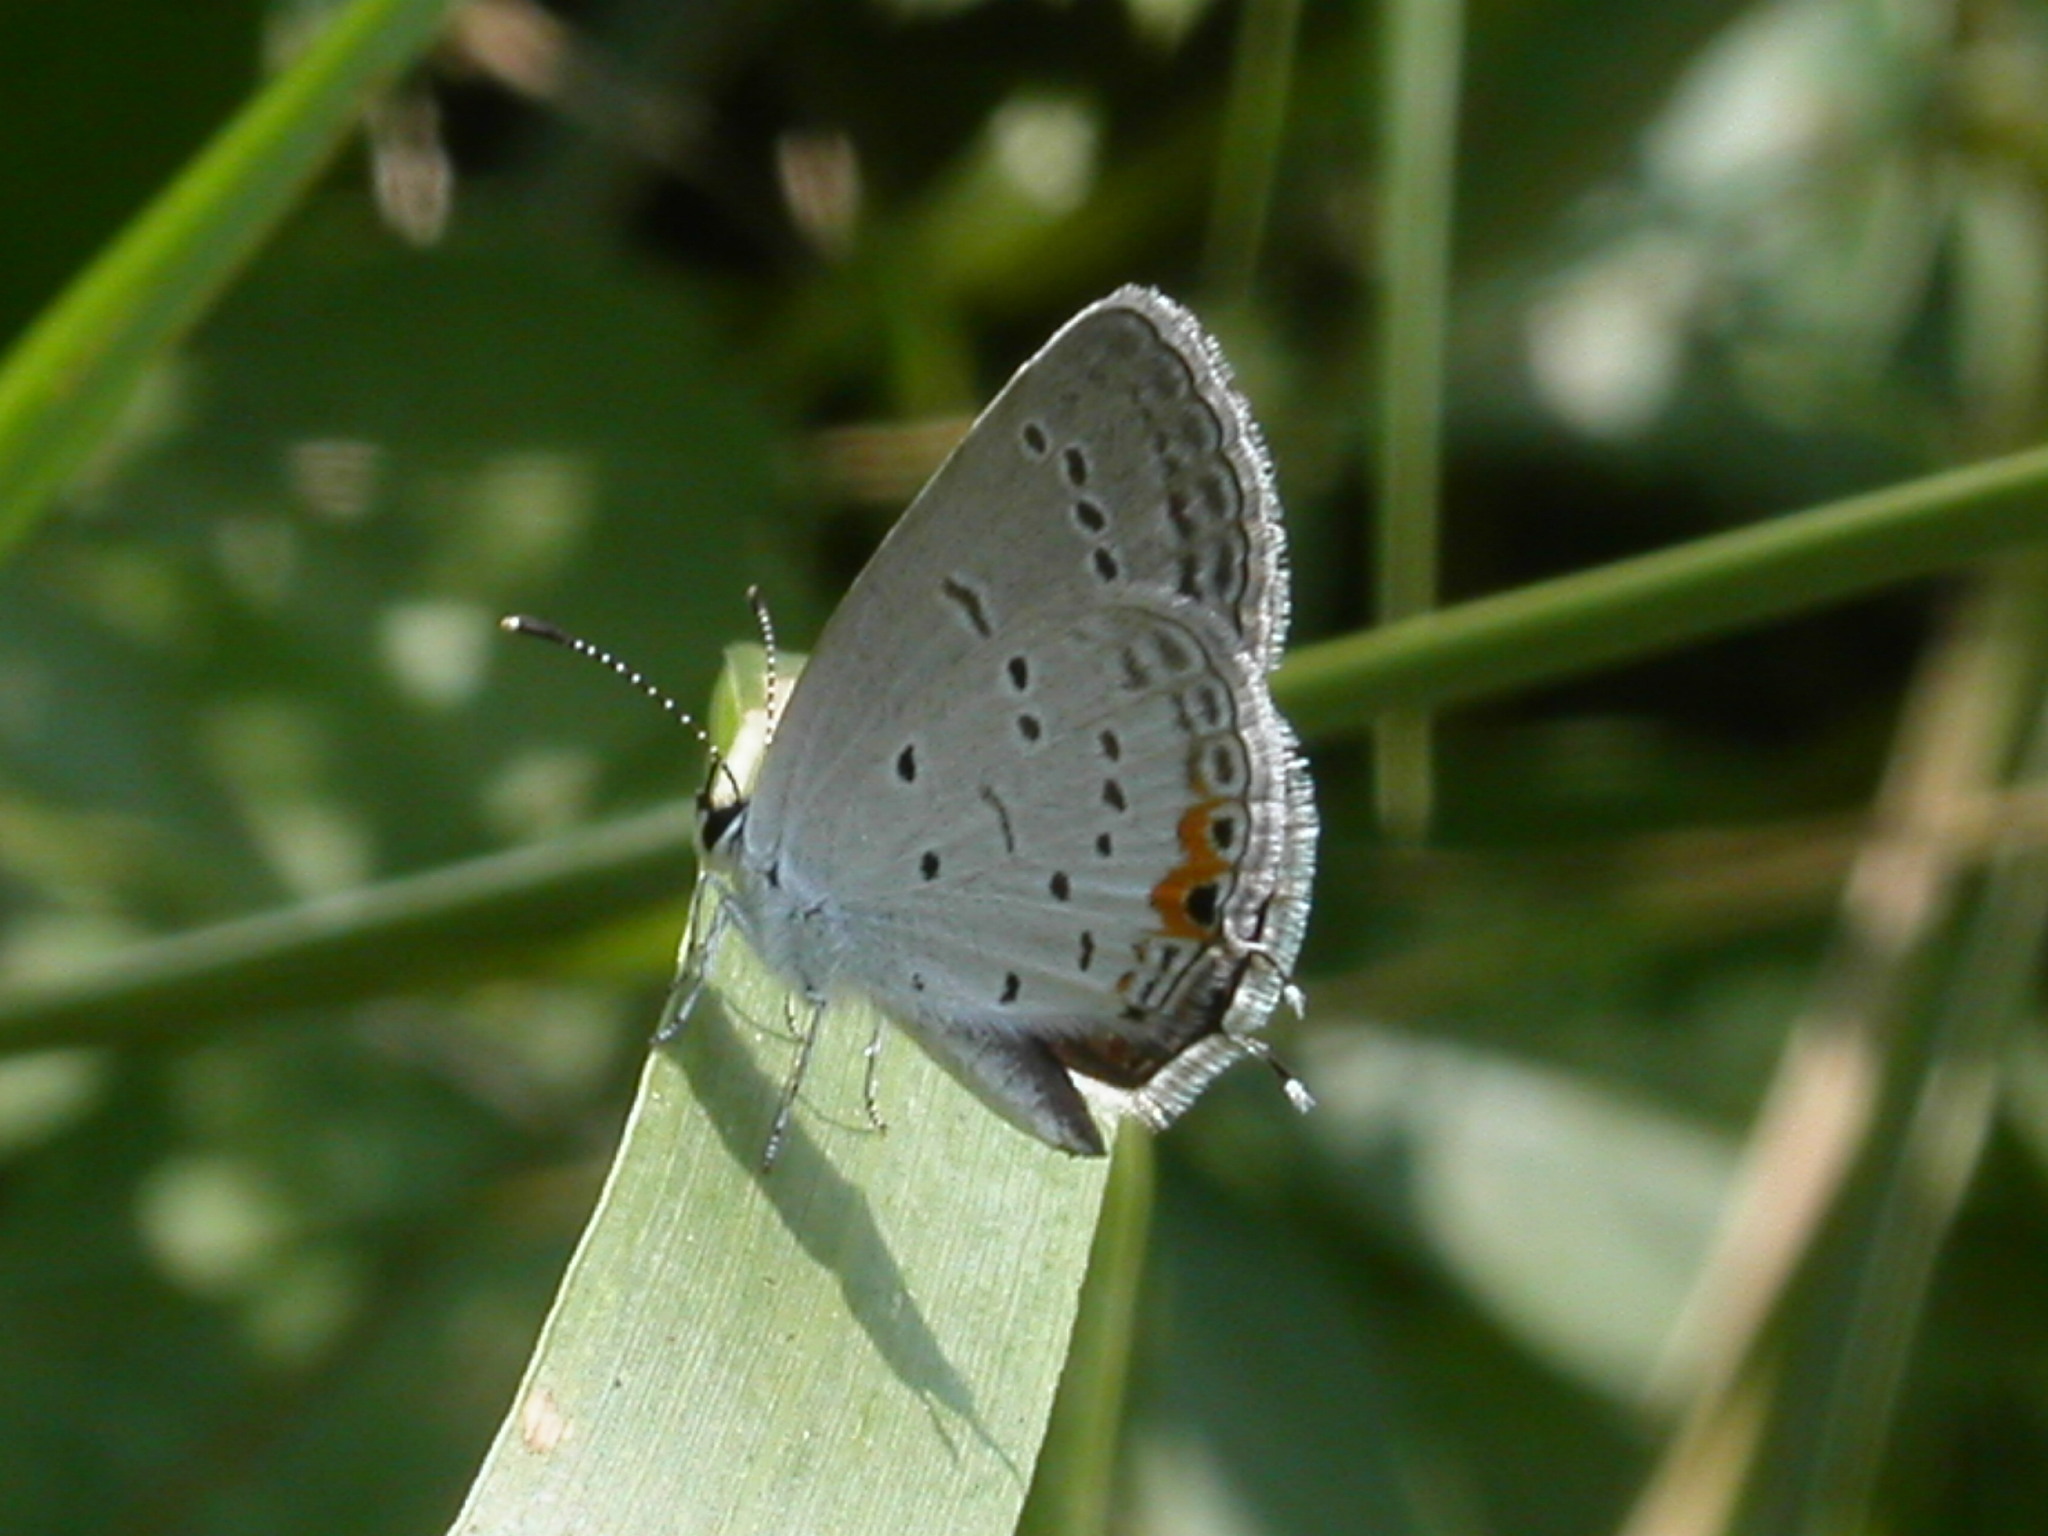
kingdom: Animalia
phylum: Arthropoda
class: Insecta
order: Lepidoptera
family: Lycaenidae
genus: Elkalyce
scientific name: Elkalyce comyntas
